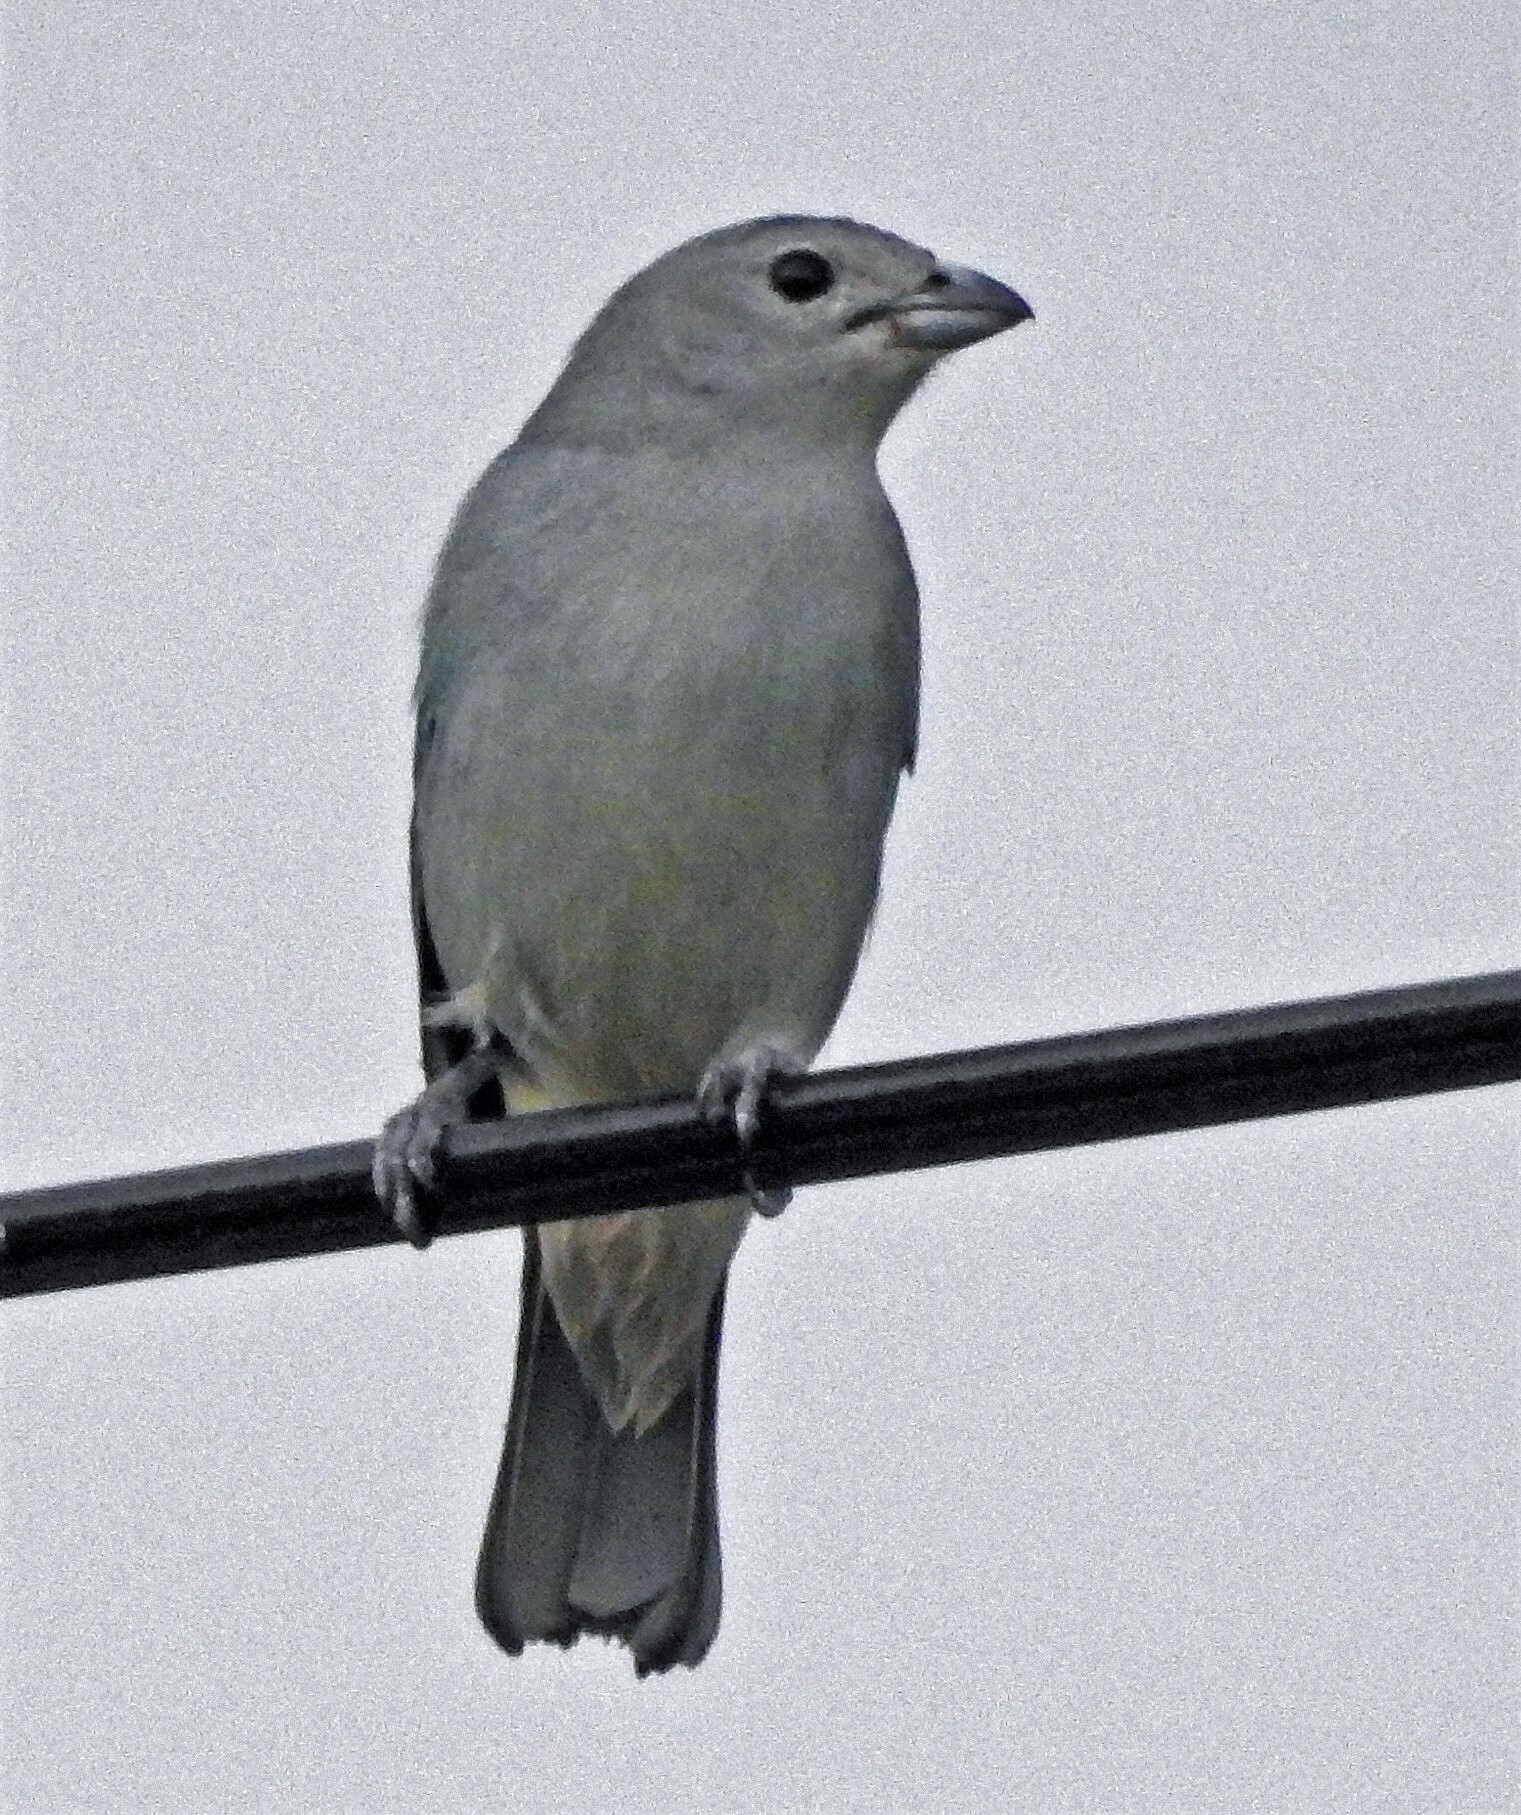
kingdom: Animalia
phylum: Chordata
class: Aves
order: Passeriformes
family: Thraupidae
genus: Thraupis
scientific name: Thraupis sayaca
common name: Sayaca tanager
